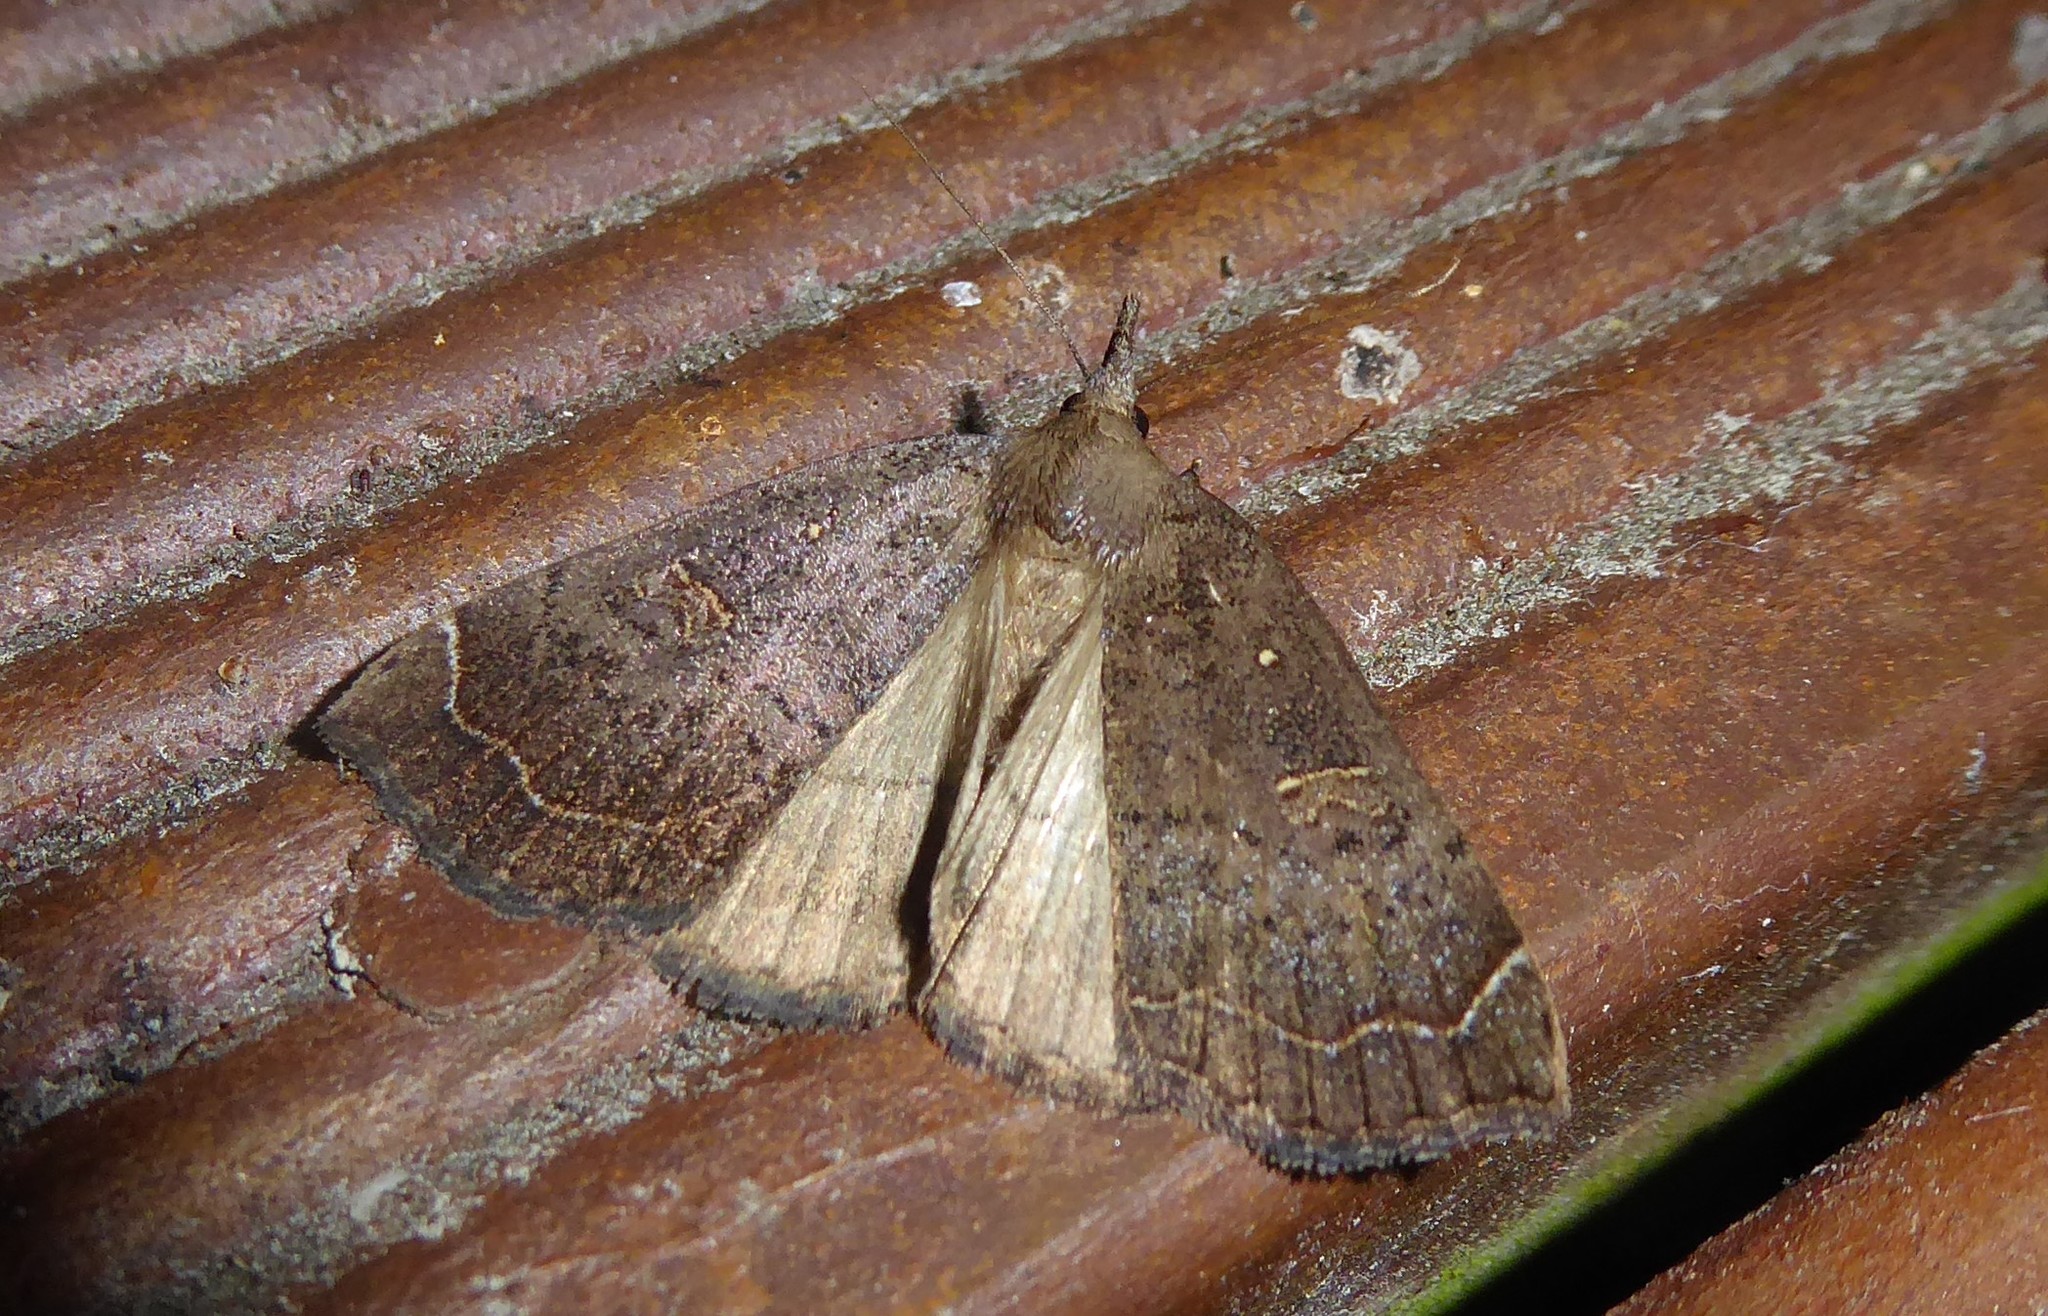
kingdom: Animalia
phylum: Arthropoda
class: Insecta
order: Lepidoptera
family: Erebidae
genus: Rhapsa
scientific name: Rhapsa scotosialis
